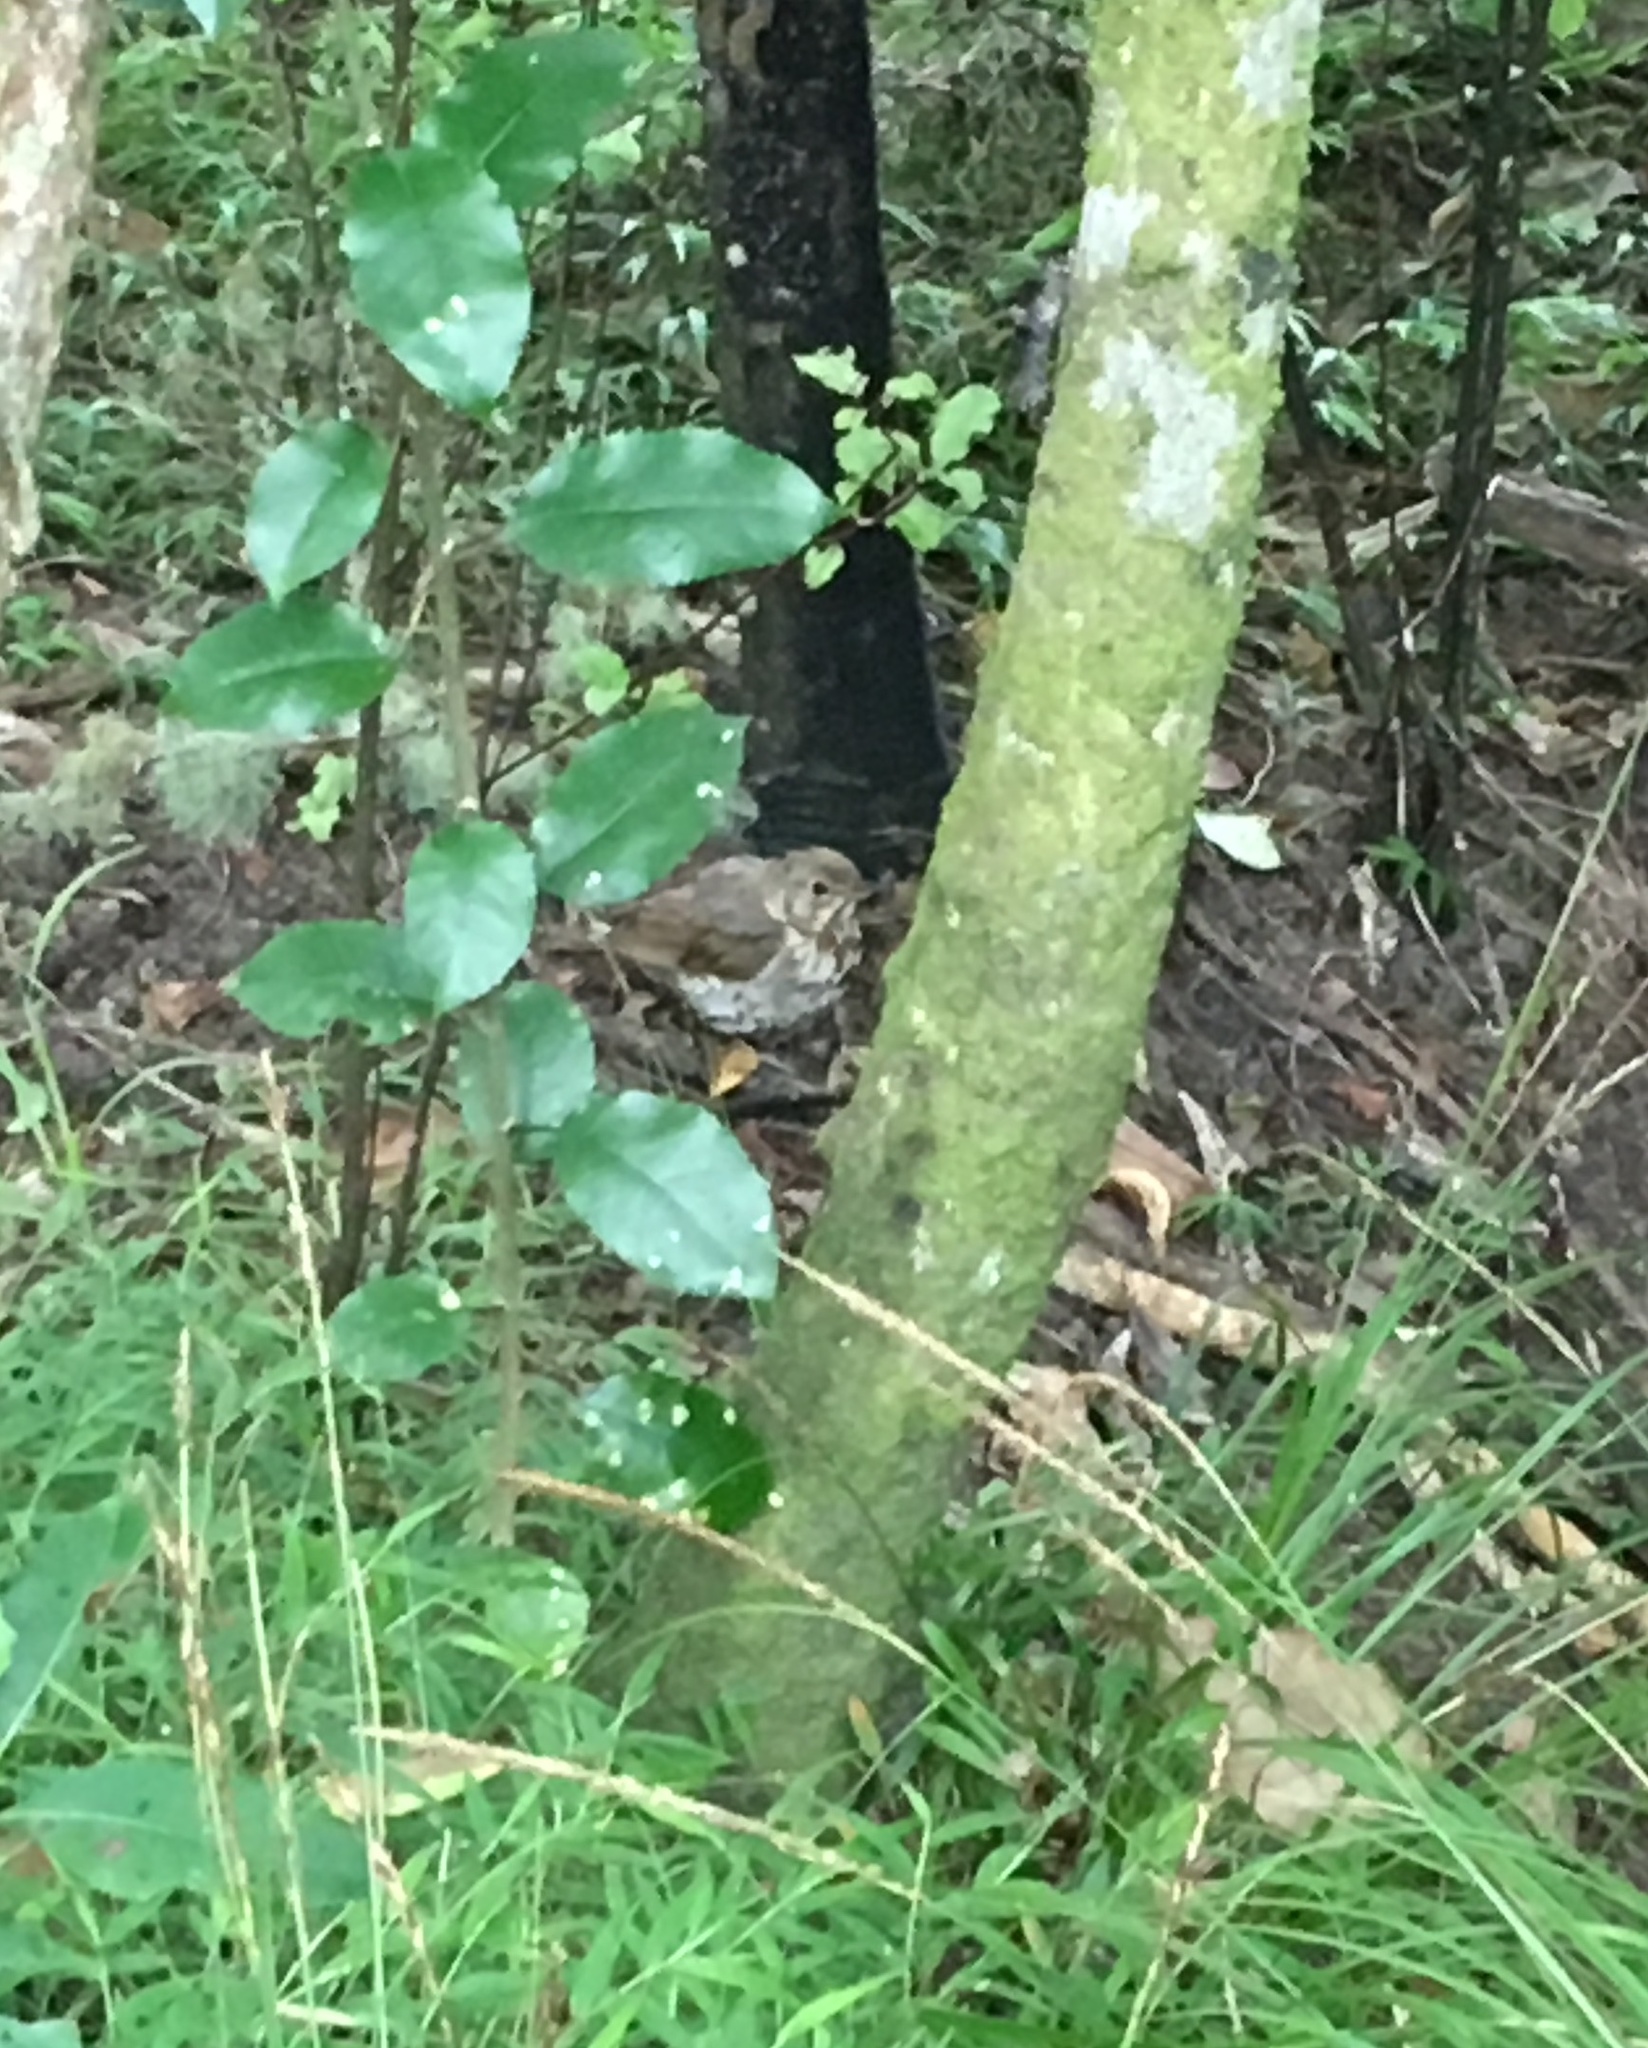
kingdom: Animalia
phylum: Chordata
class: Aves
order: Passeriformes
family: Turdidae
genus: Turdus
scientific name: Turdus philomelos
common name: Song thrush
